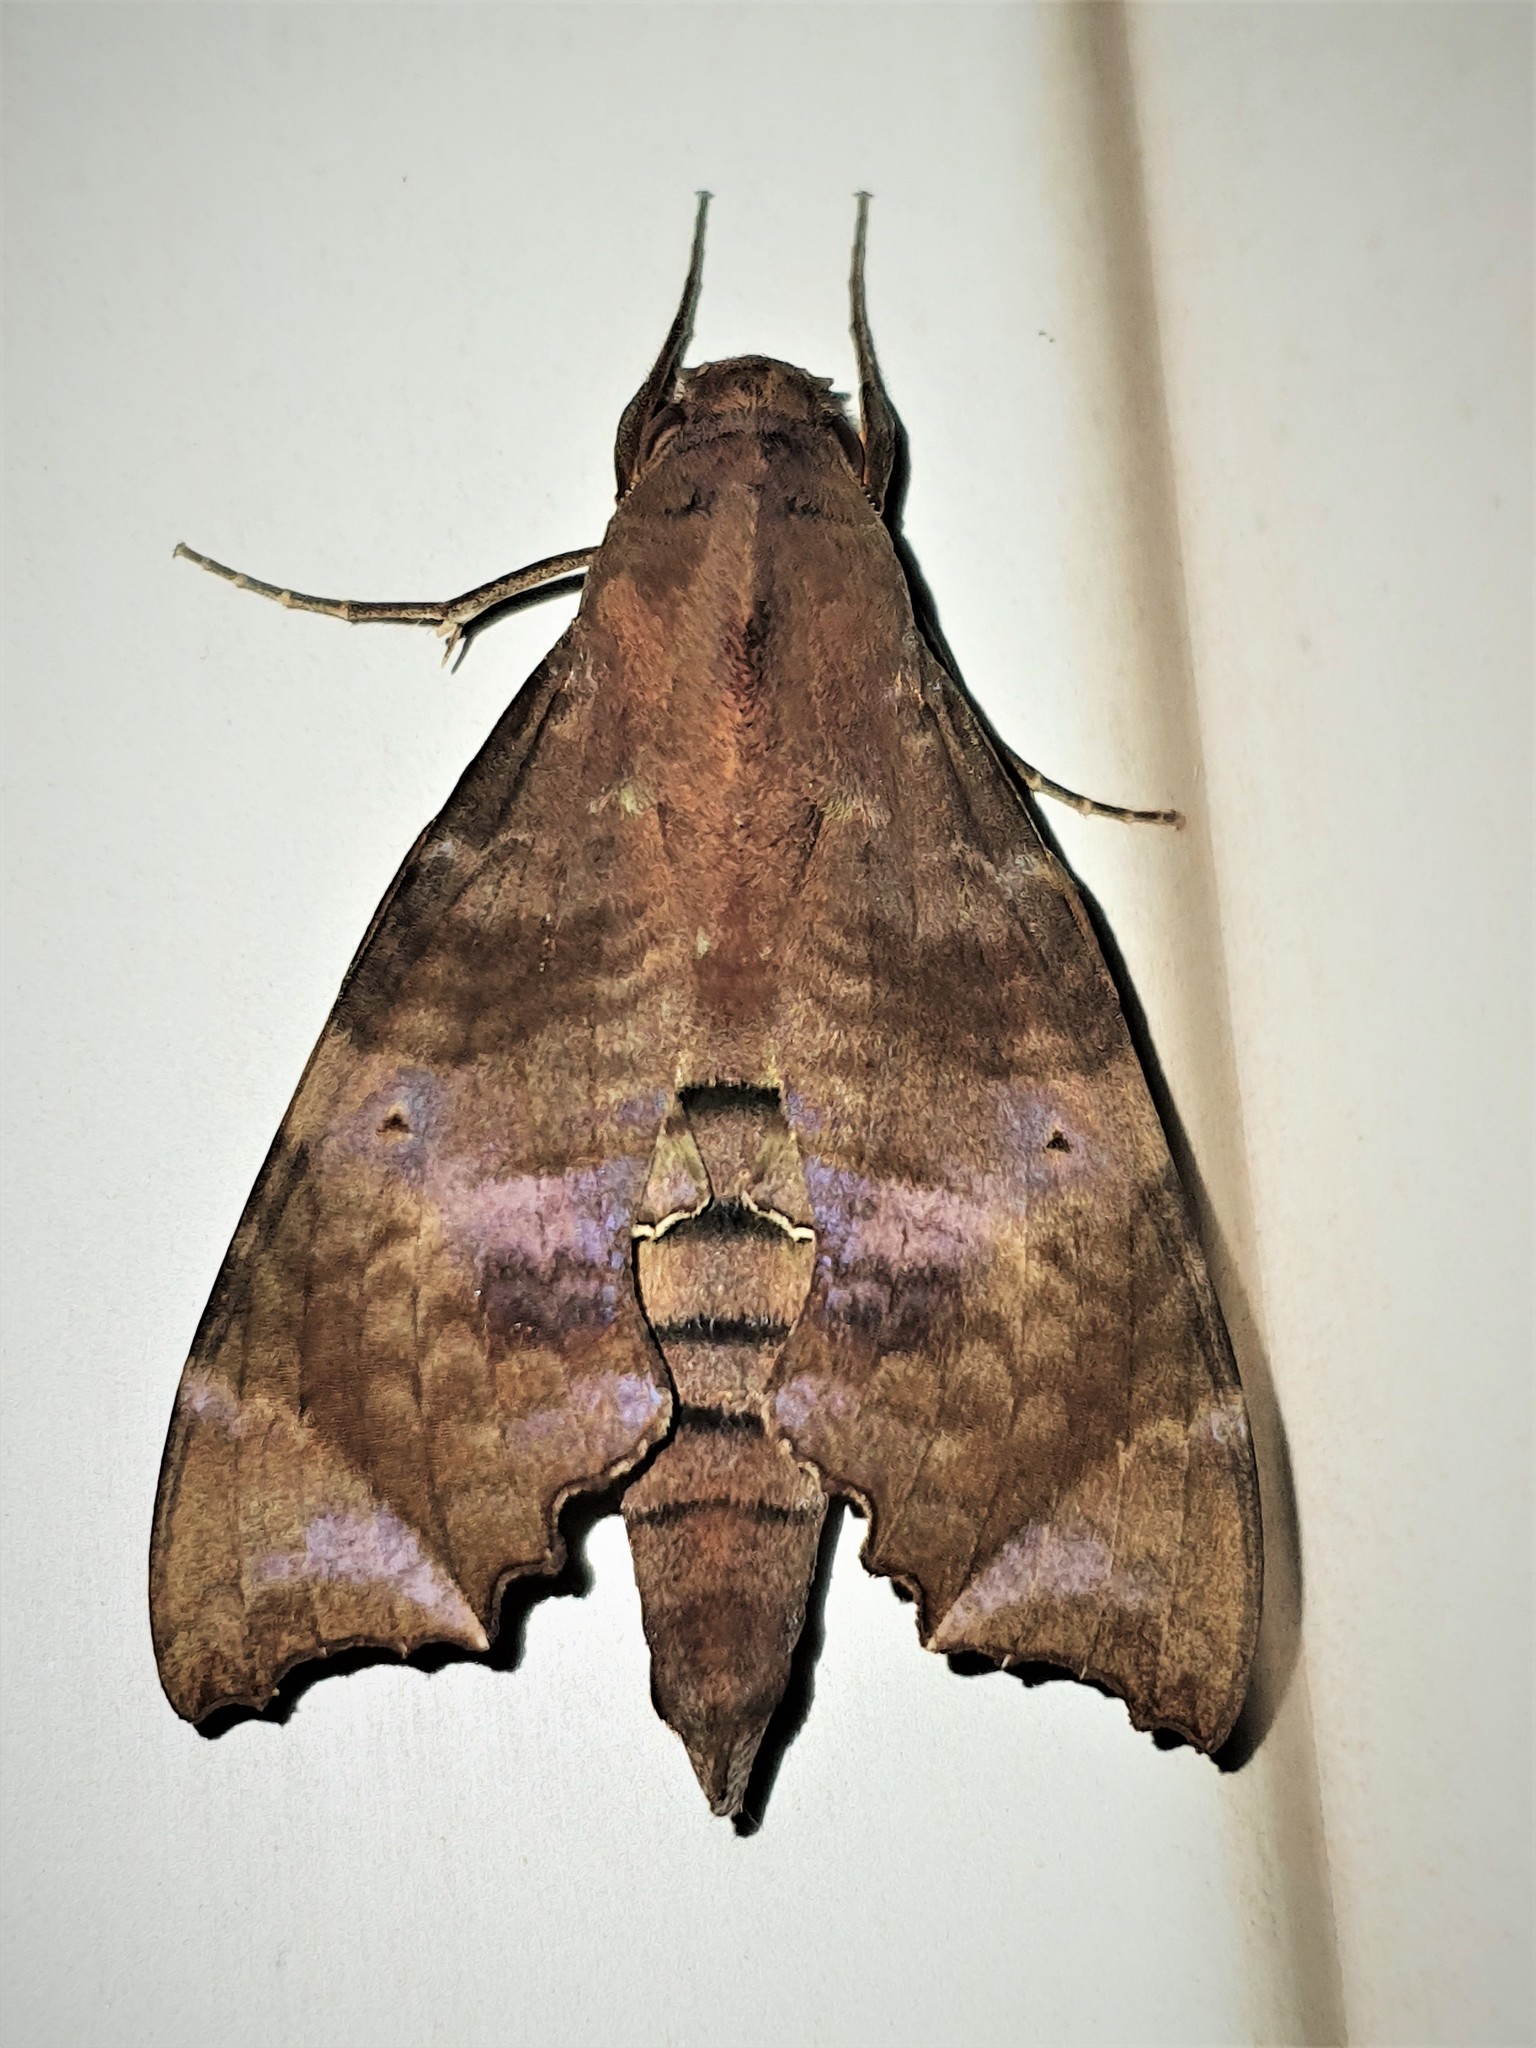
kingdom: Animalia
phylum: Arthropoda
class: Insecta
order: Lepidoptera
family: Sphingidae
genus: Aleuron
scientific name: Aleuron carinata
